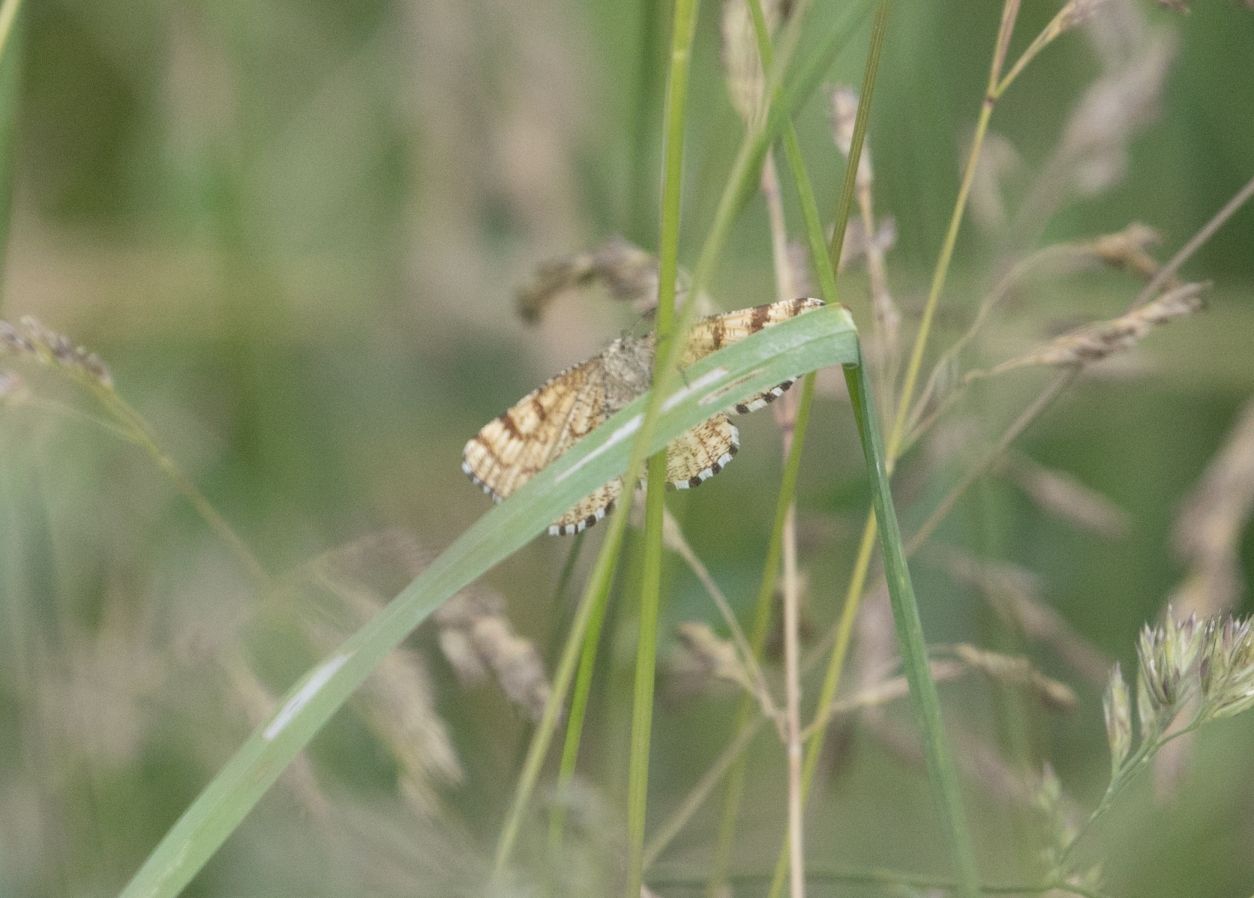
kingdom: Animalia
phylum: Arthropoda
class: Insecta
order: Lepidoptera
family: Geometridae
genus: Ematurga
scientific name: Ematurga atomaria
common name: Common heath
